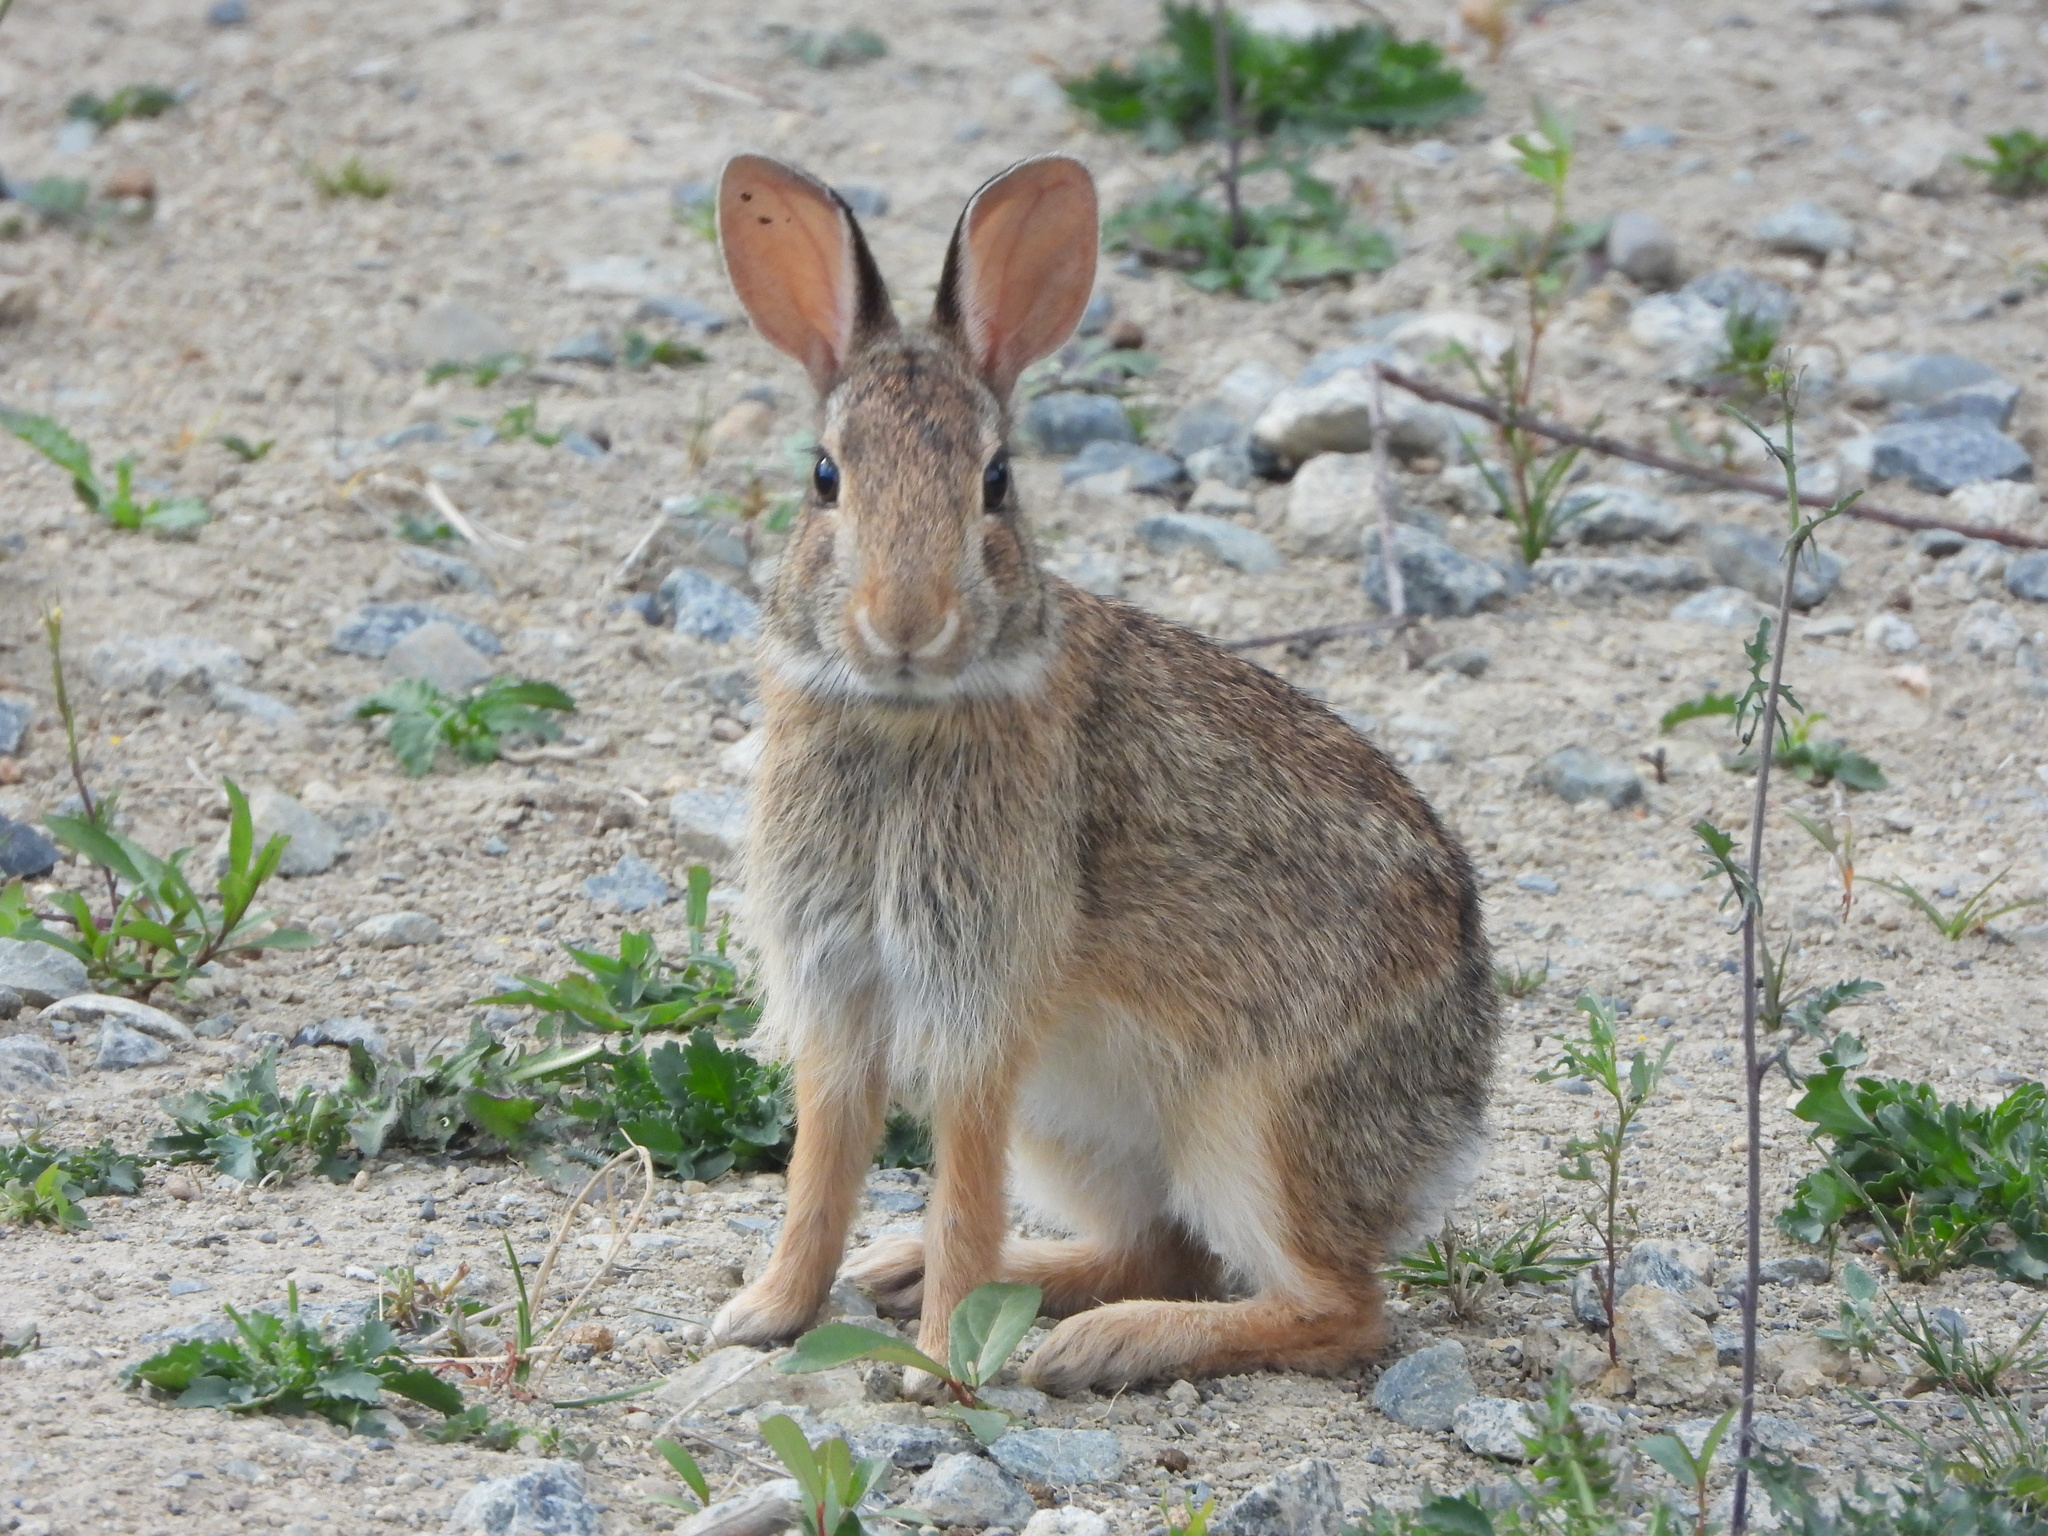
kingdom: Animalia
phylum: Chordata
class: Mammalia
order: Lagomorpha
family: Leporidae
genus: Sylvilagus
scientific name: Sylvilagus floridanus
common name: Eastern cottontail
